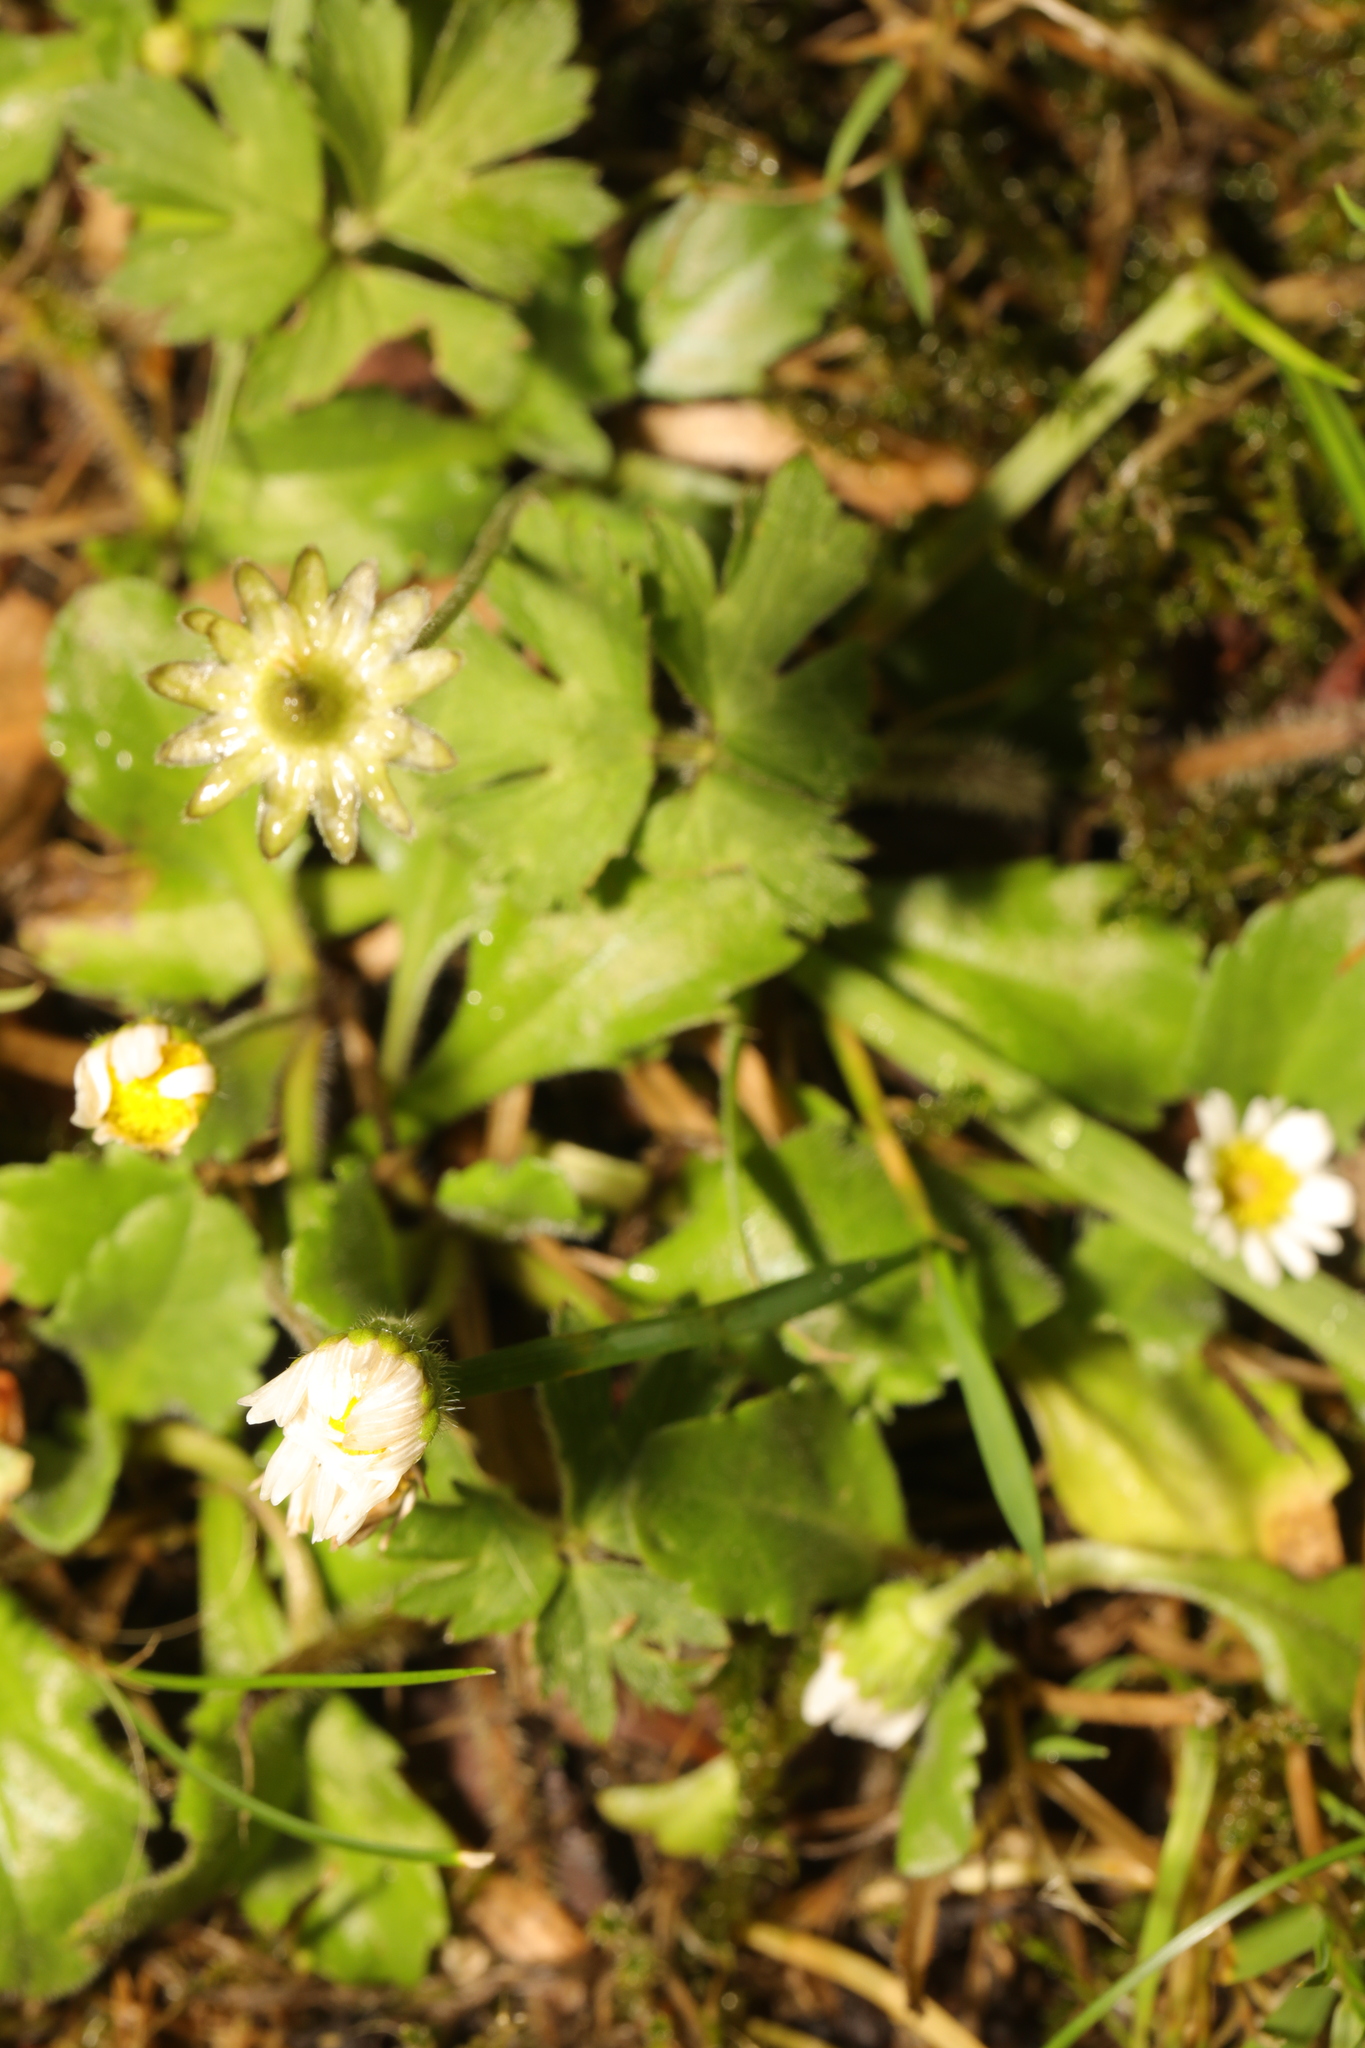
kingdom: Plantae
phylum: Tracheophyta
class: Magnoliopsida
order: Asterales
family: Asteraceae
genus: Bellis
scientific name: Bellis perennis
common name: Lawndaisy
